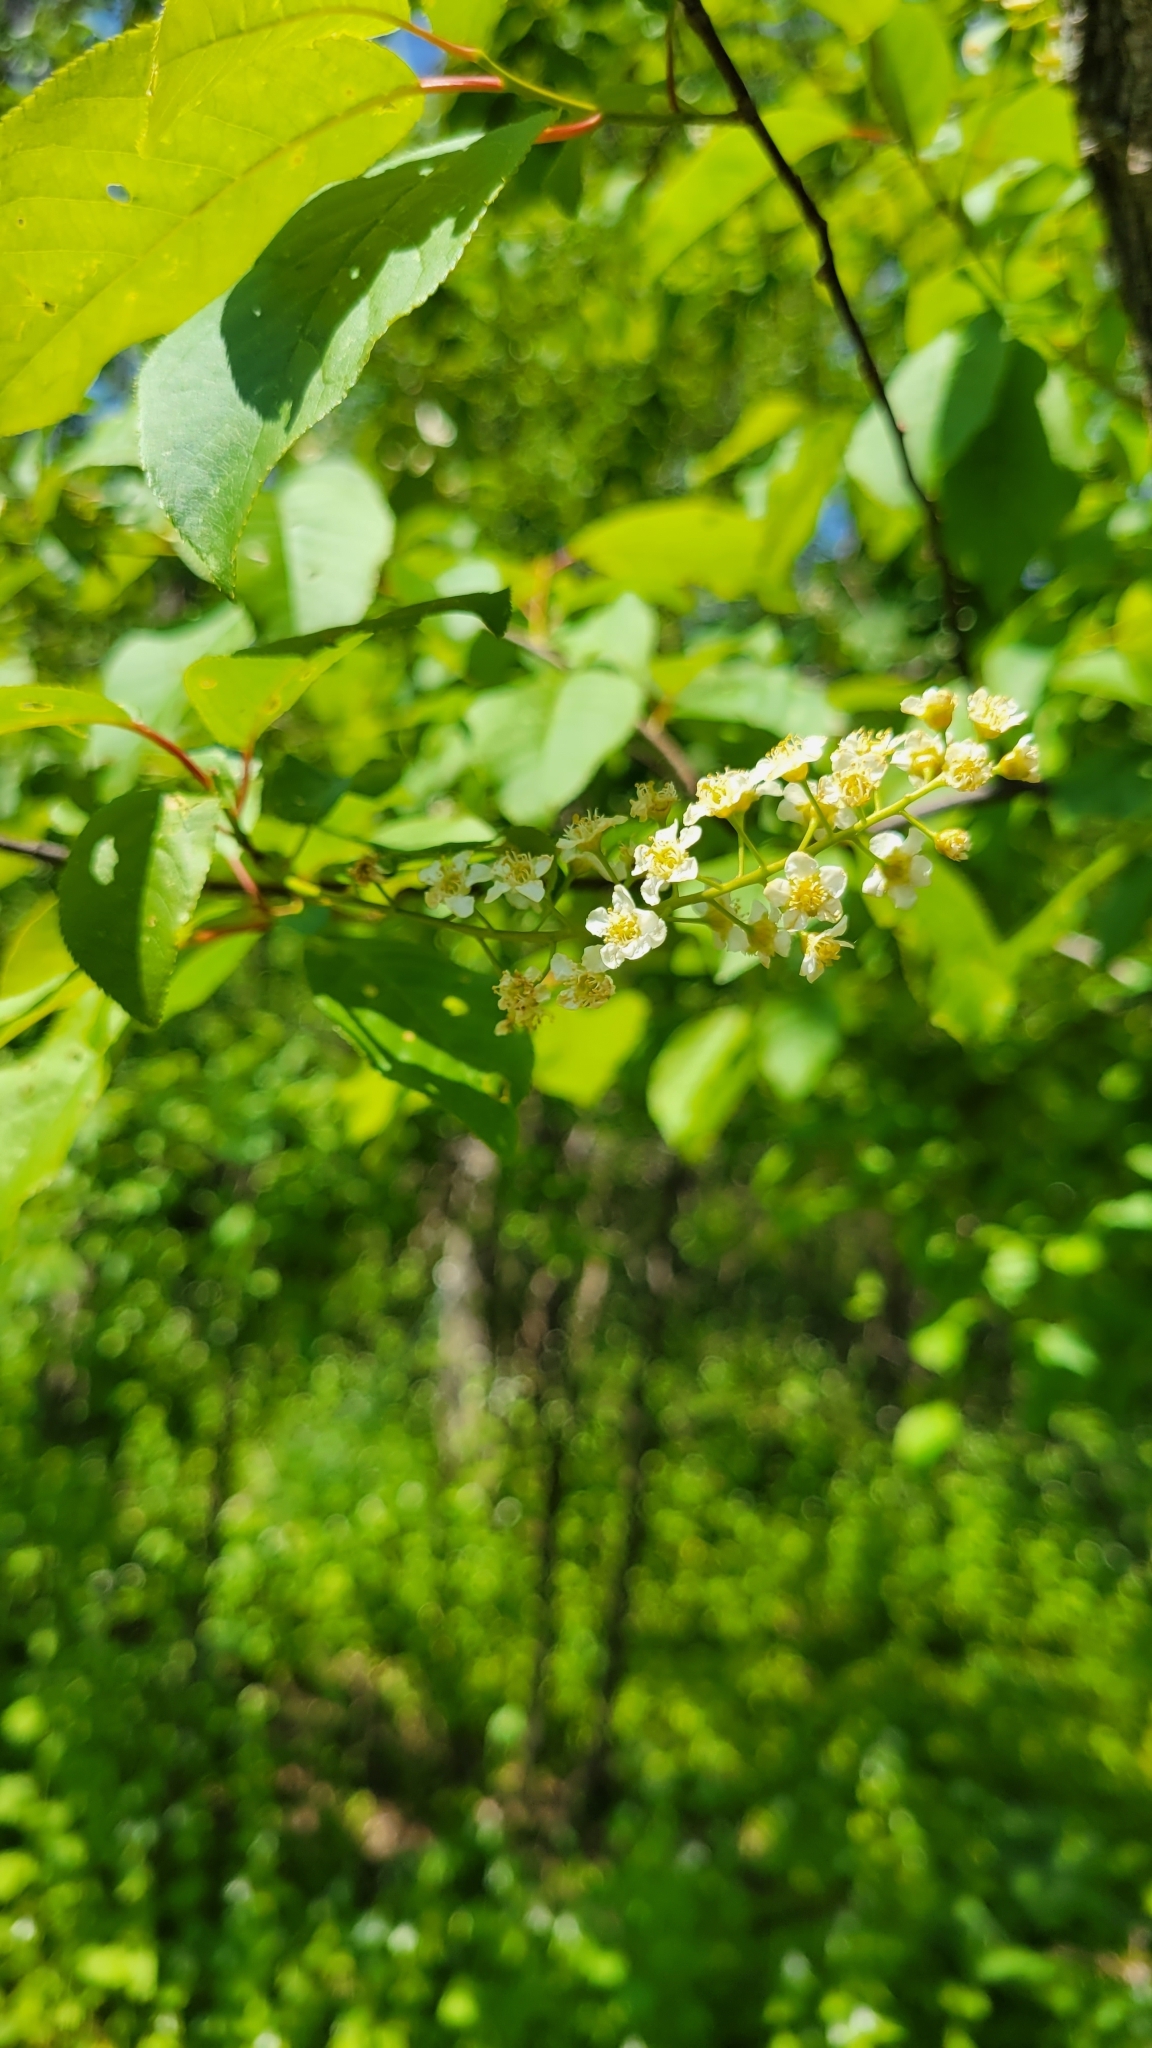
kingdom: Plantae
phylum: Tracheophyta
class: Magnoliopsida
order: Rosales
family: Rosaceae
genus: Prunus
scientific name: Prunus virginiana
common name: Chokecherry
